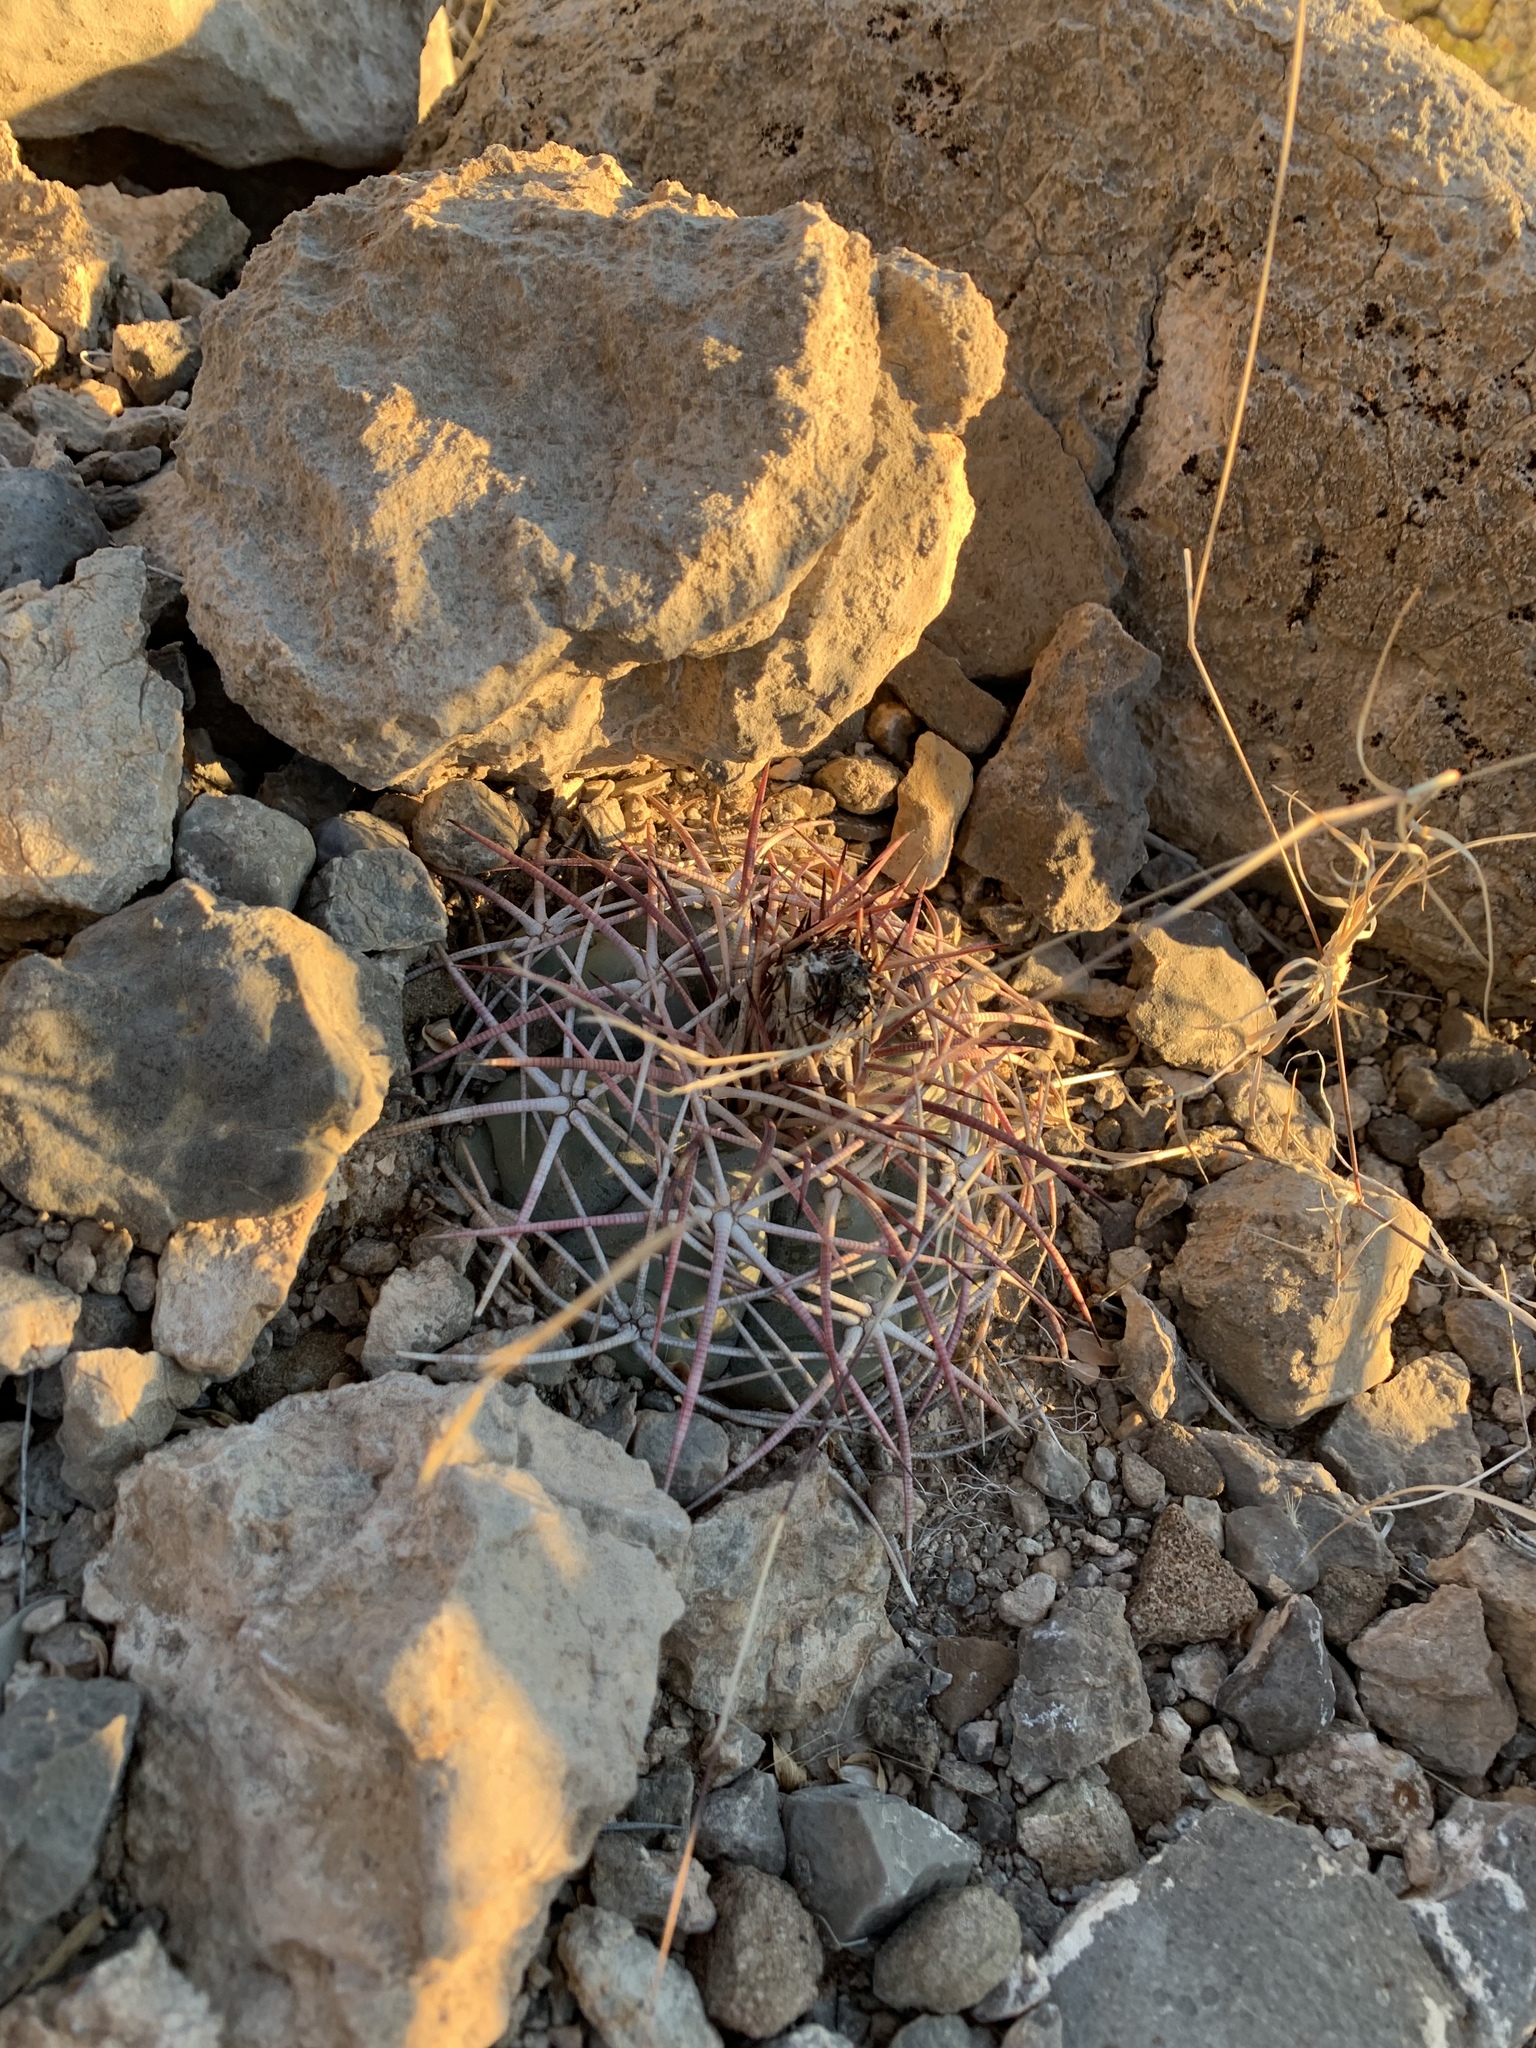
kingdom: Plantae
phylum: Tracheophyta
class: Magnoliopsida
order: Caryophyllales
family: Cactaceae
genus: Echinocactus
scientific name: Echinocactus horizonthalonius
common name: Devilshead
